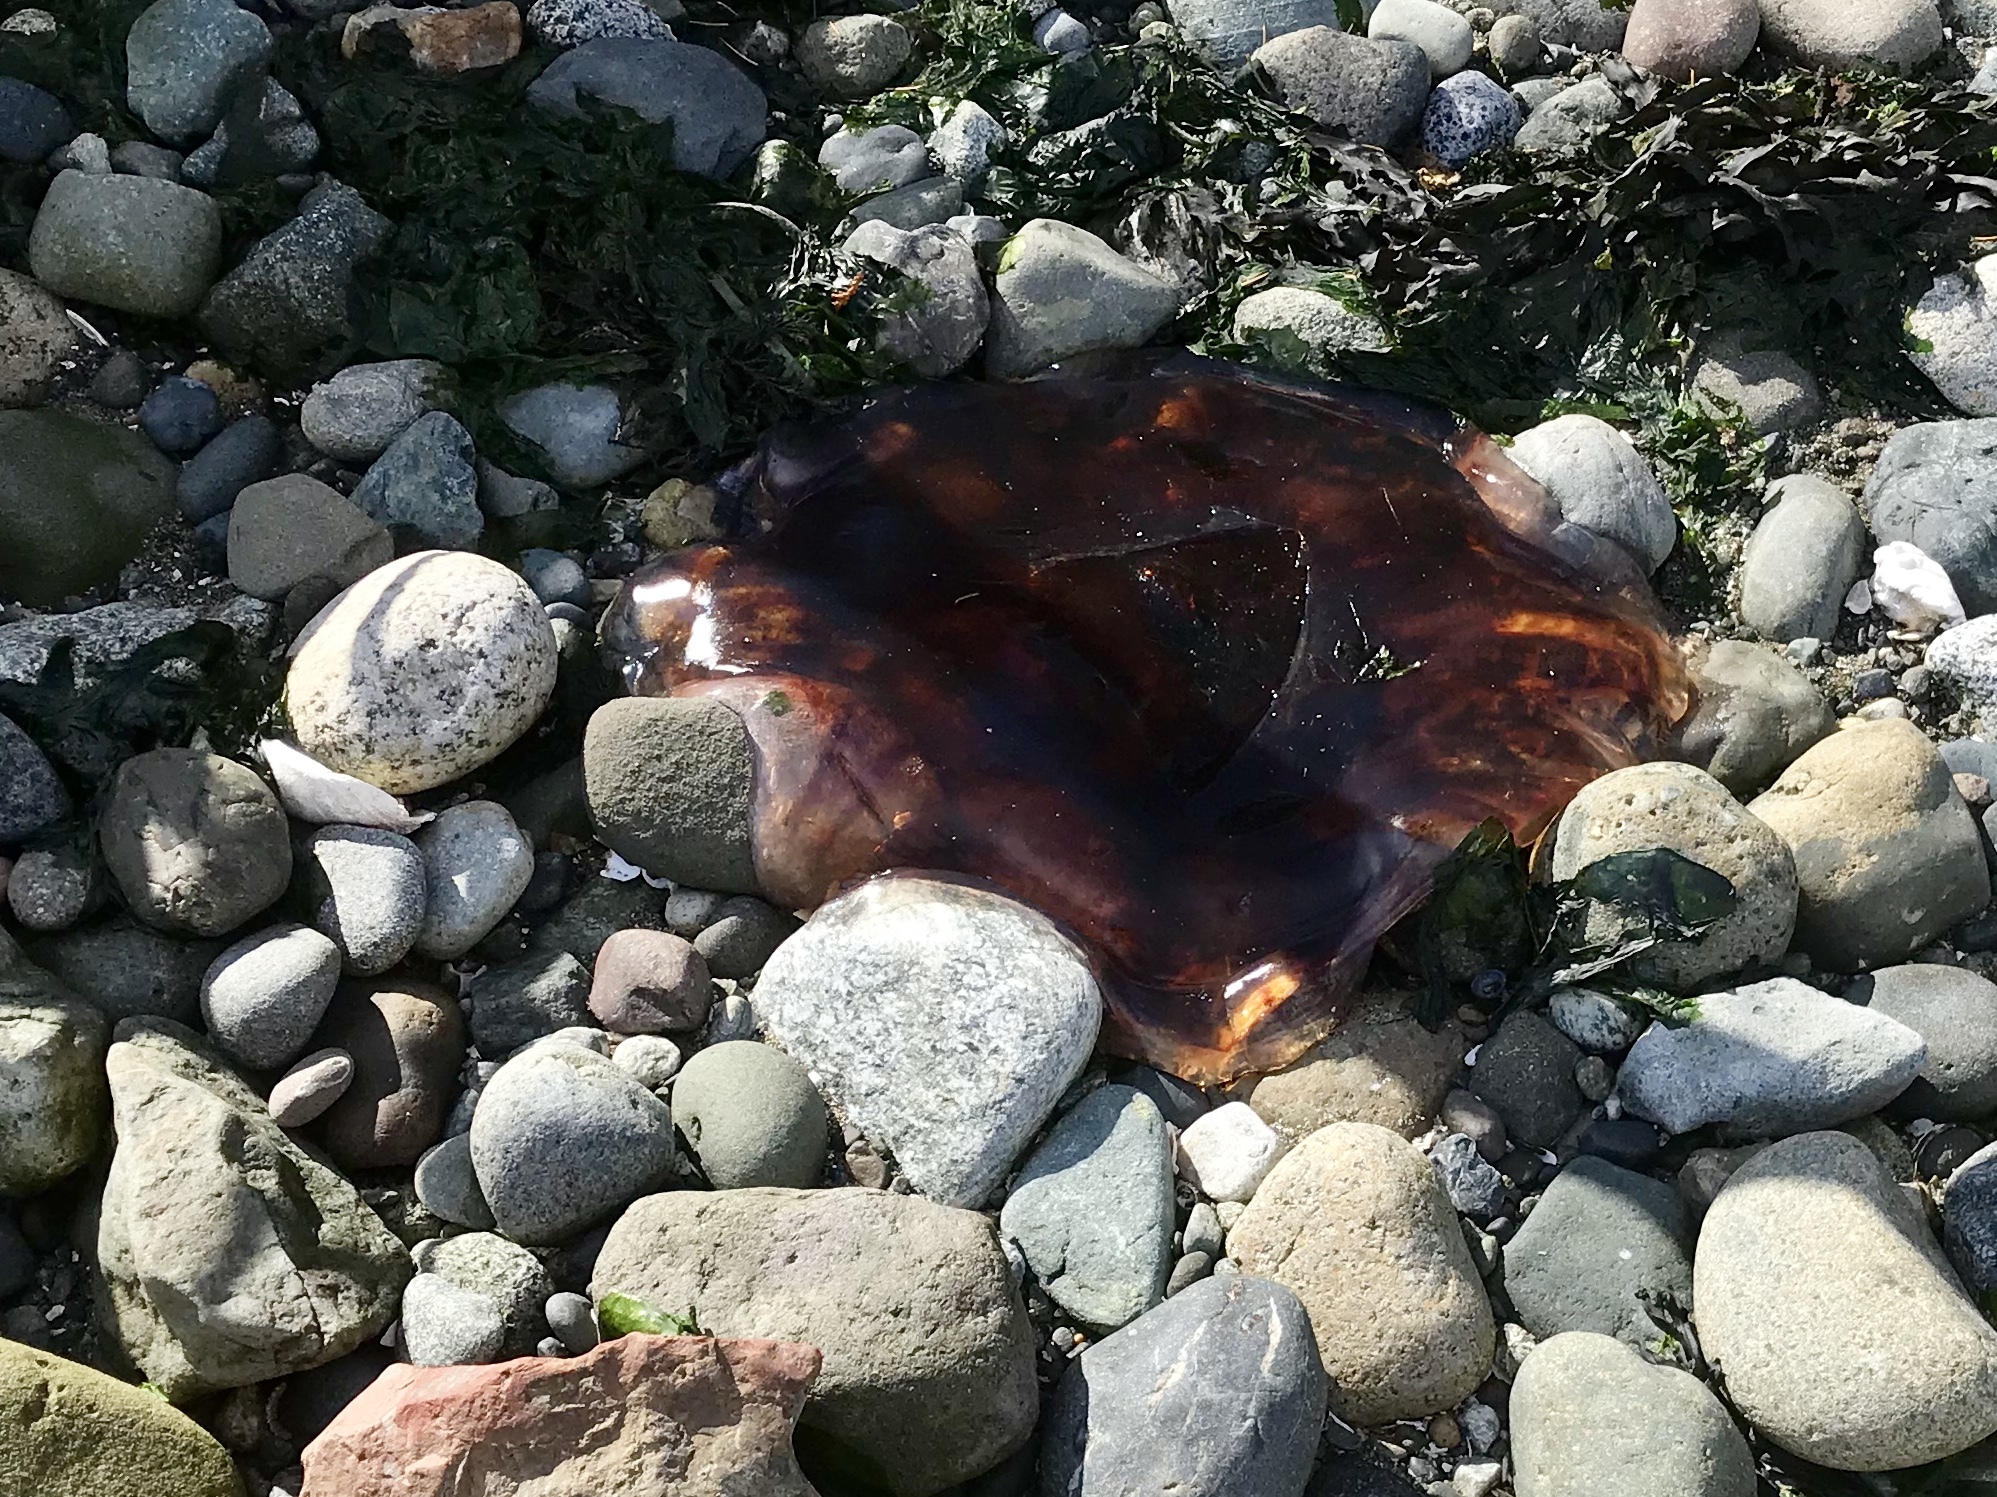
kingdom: Animalia
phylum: Cnidaria
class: Scyphozoa
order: Semaeostomeae
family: Cyaneidae
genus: Cyanea
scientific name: Cyanea ferruginea
